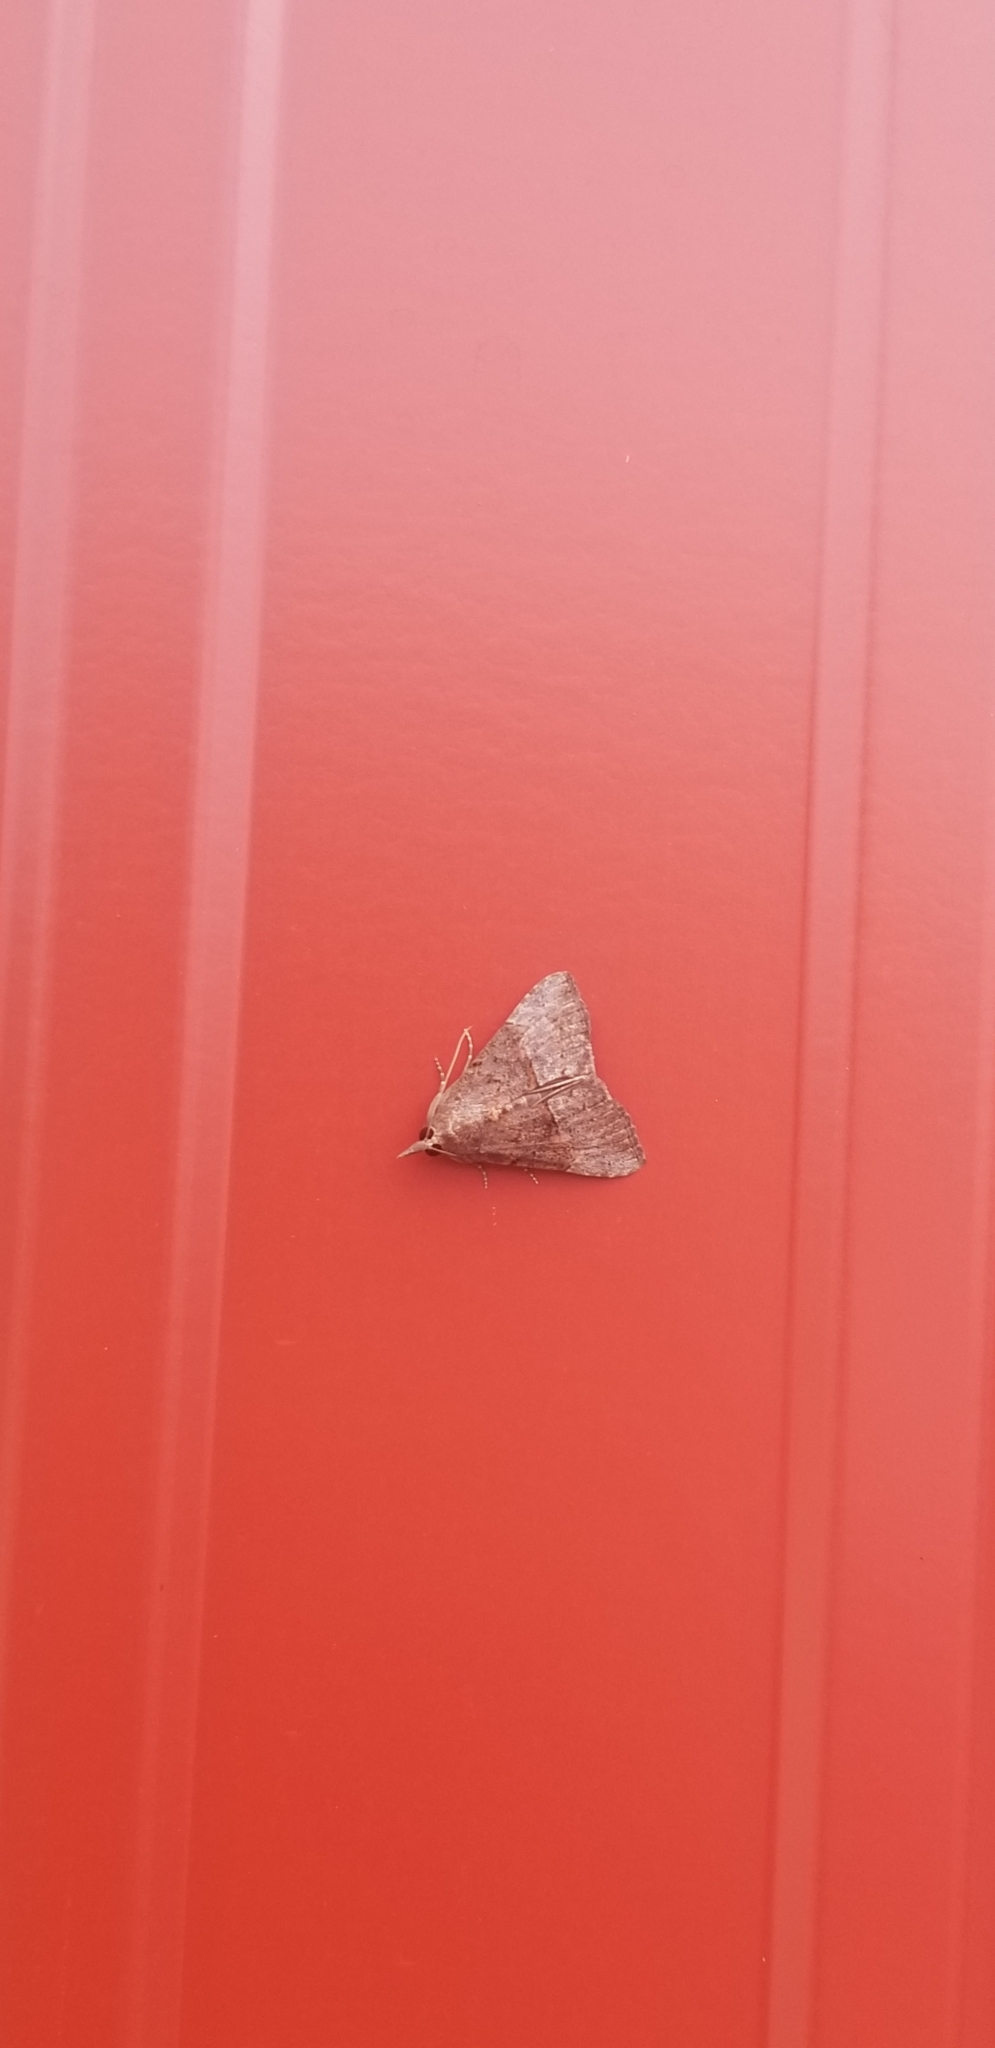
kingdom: Animalia
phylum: Arthropoda
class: Insecta
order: Lepidoptera
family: Erebidae
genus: Hypena
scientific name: Hypena scabra
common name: Green cloverworm
